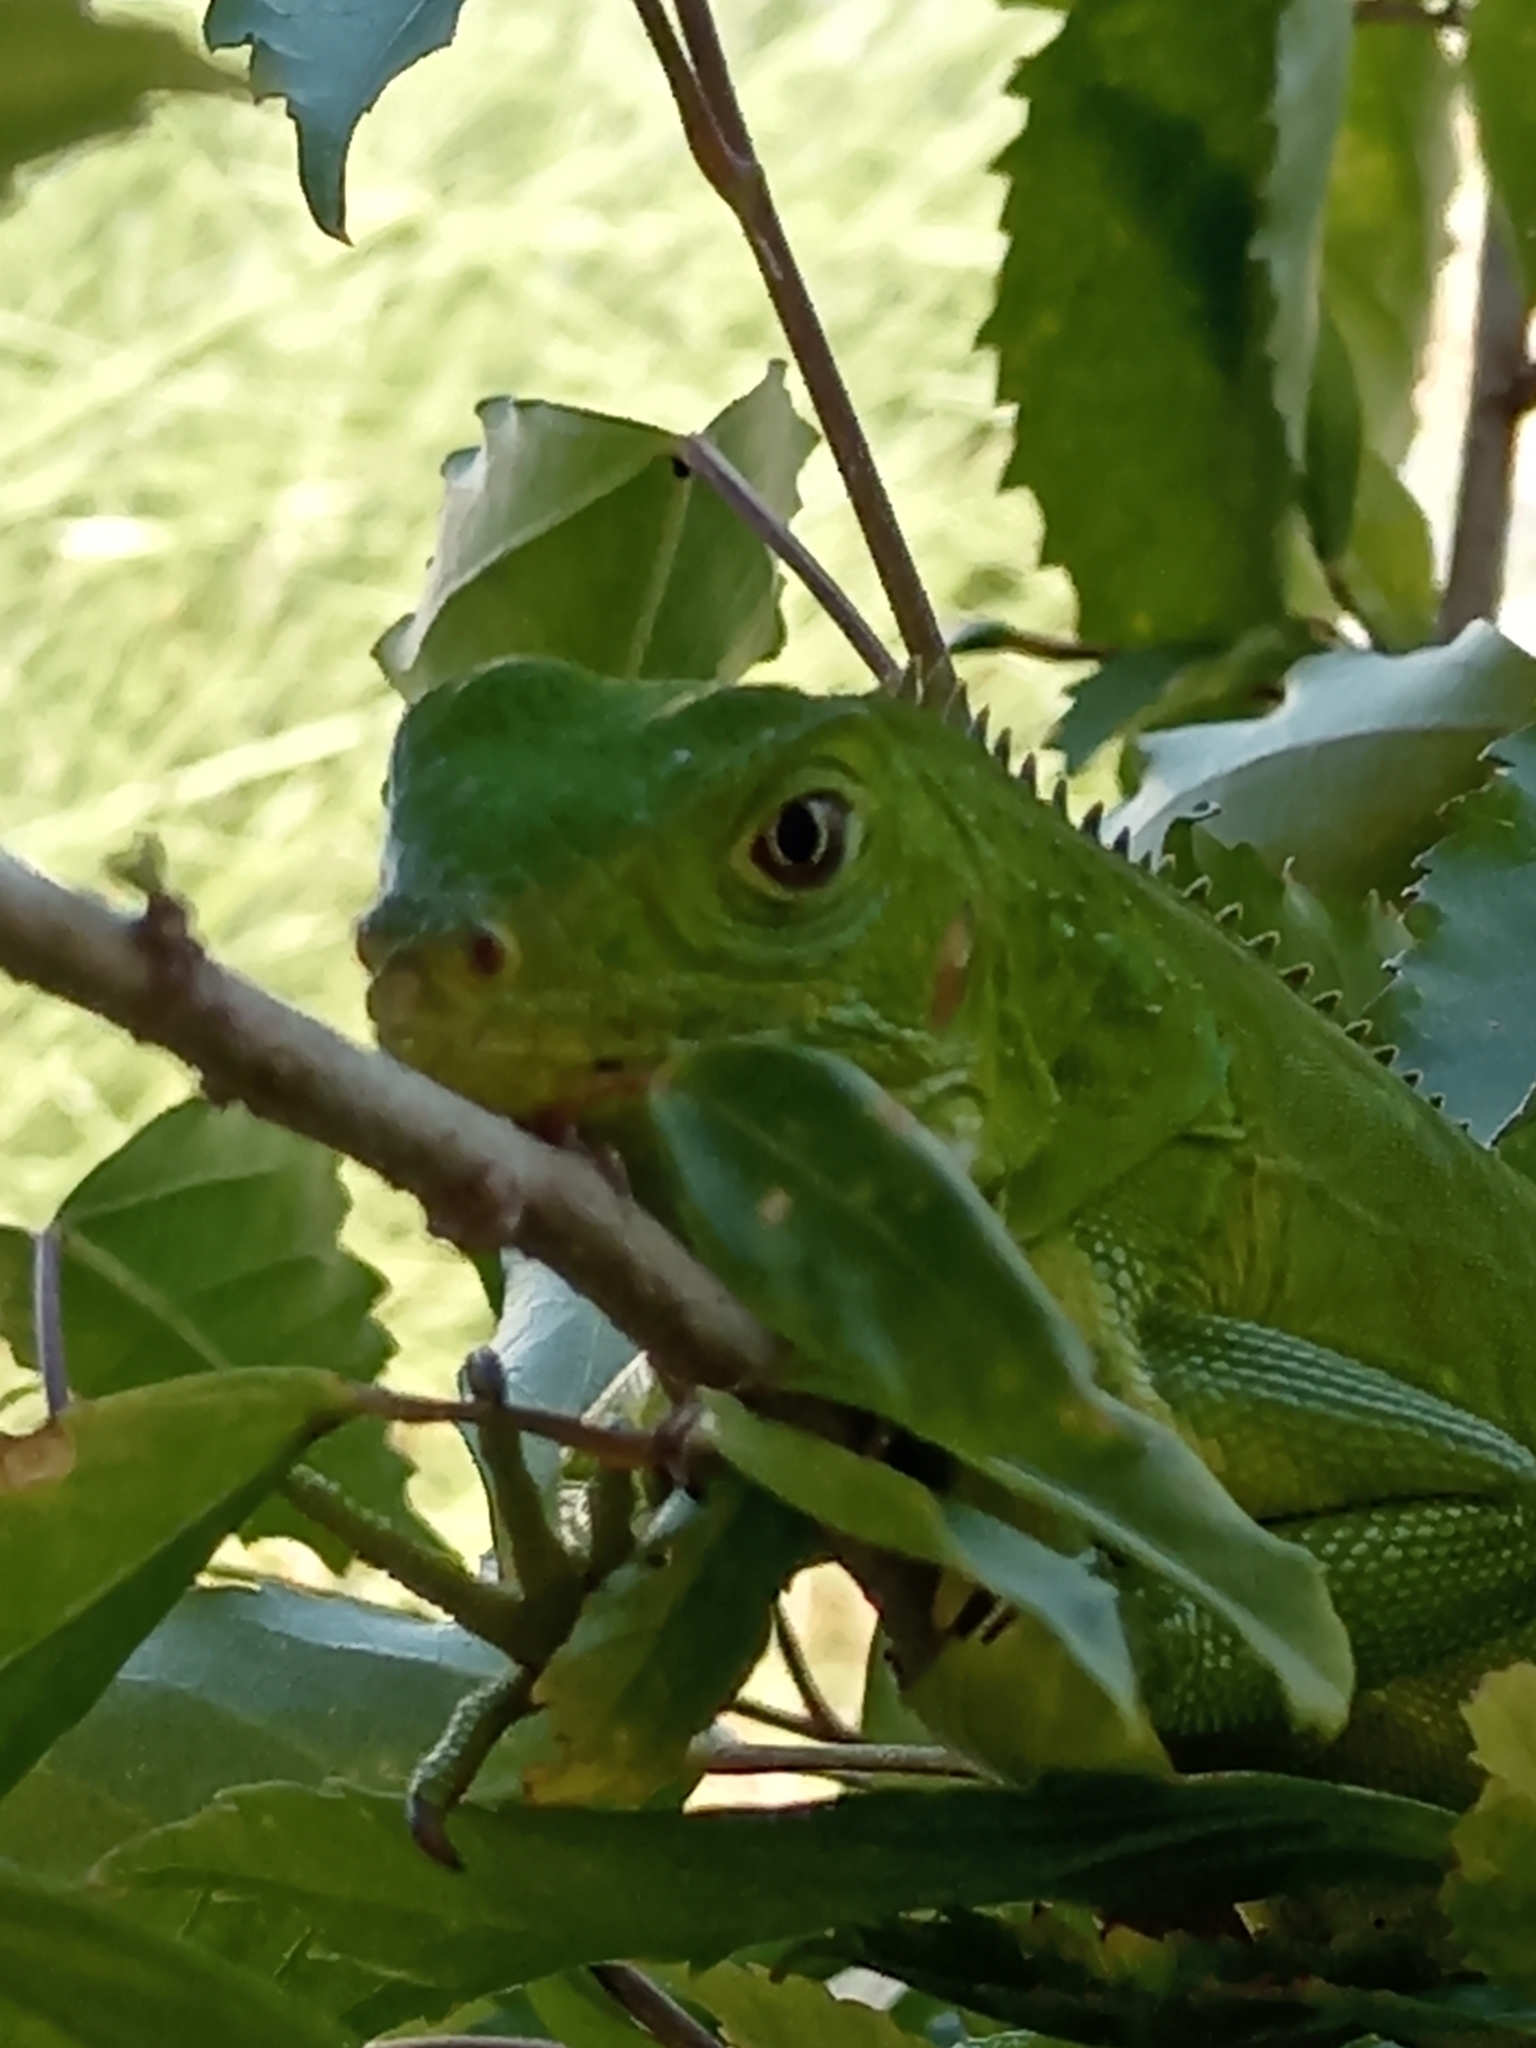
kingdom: Animalia
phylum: Chordata
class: Squamata
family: Iguanidae
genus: Iguana
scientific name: Iguana iguana
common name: Green iguana
